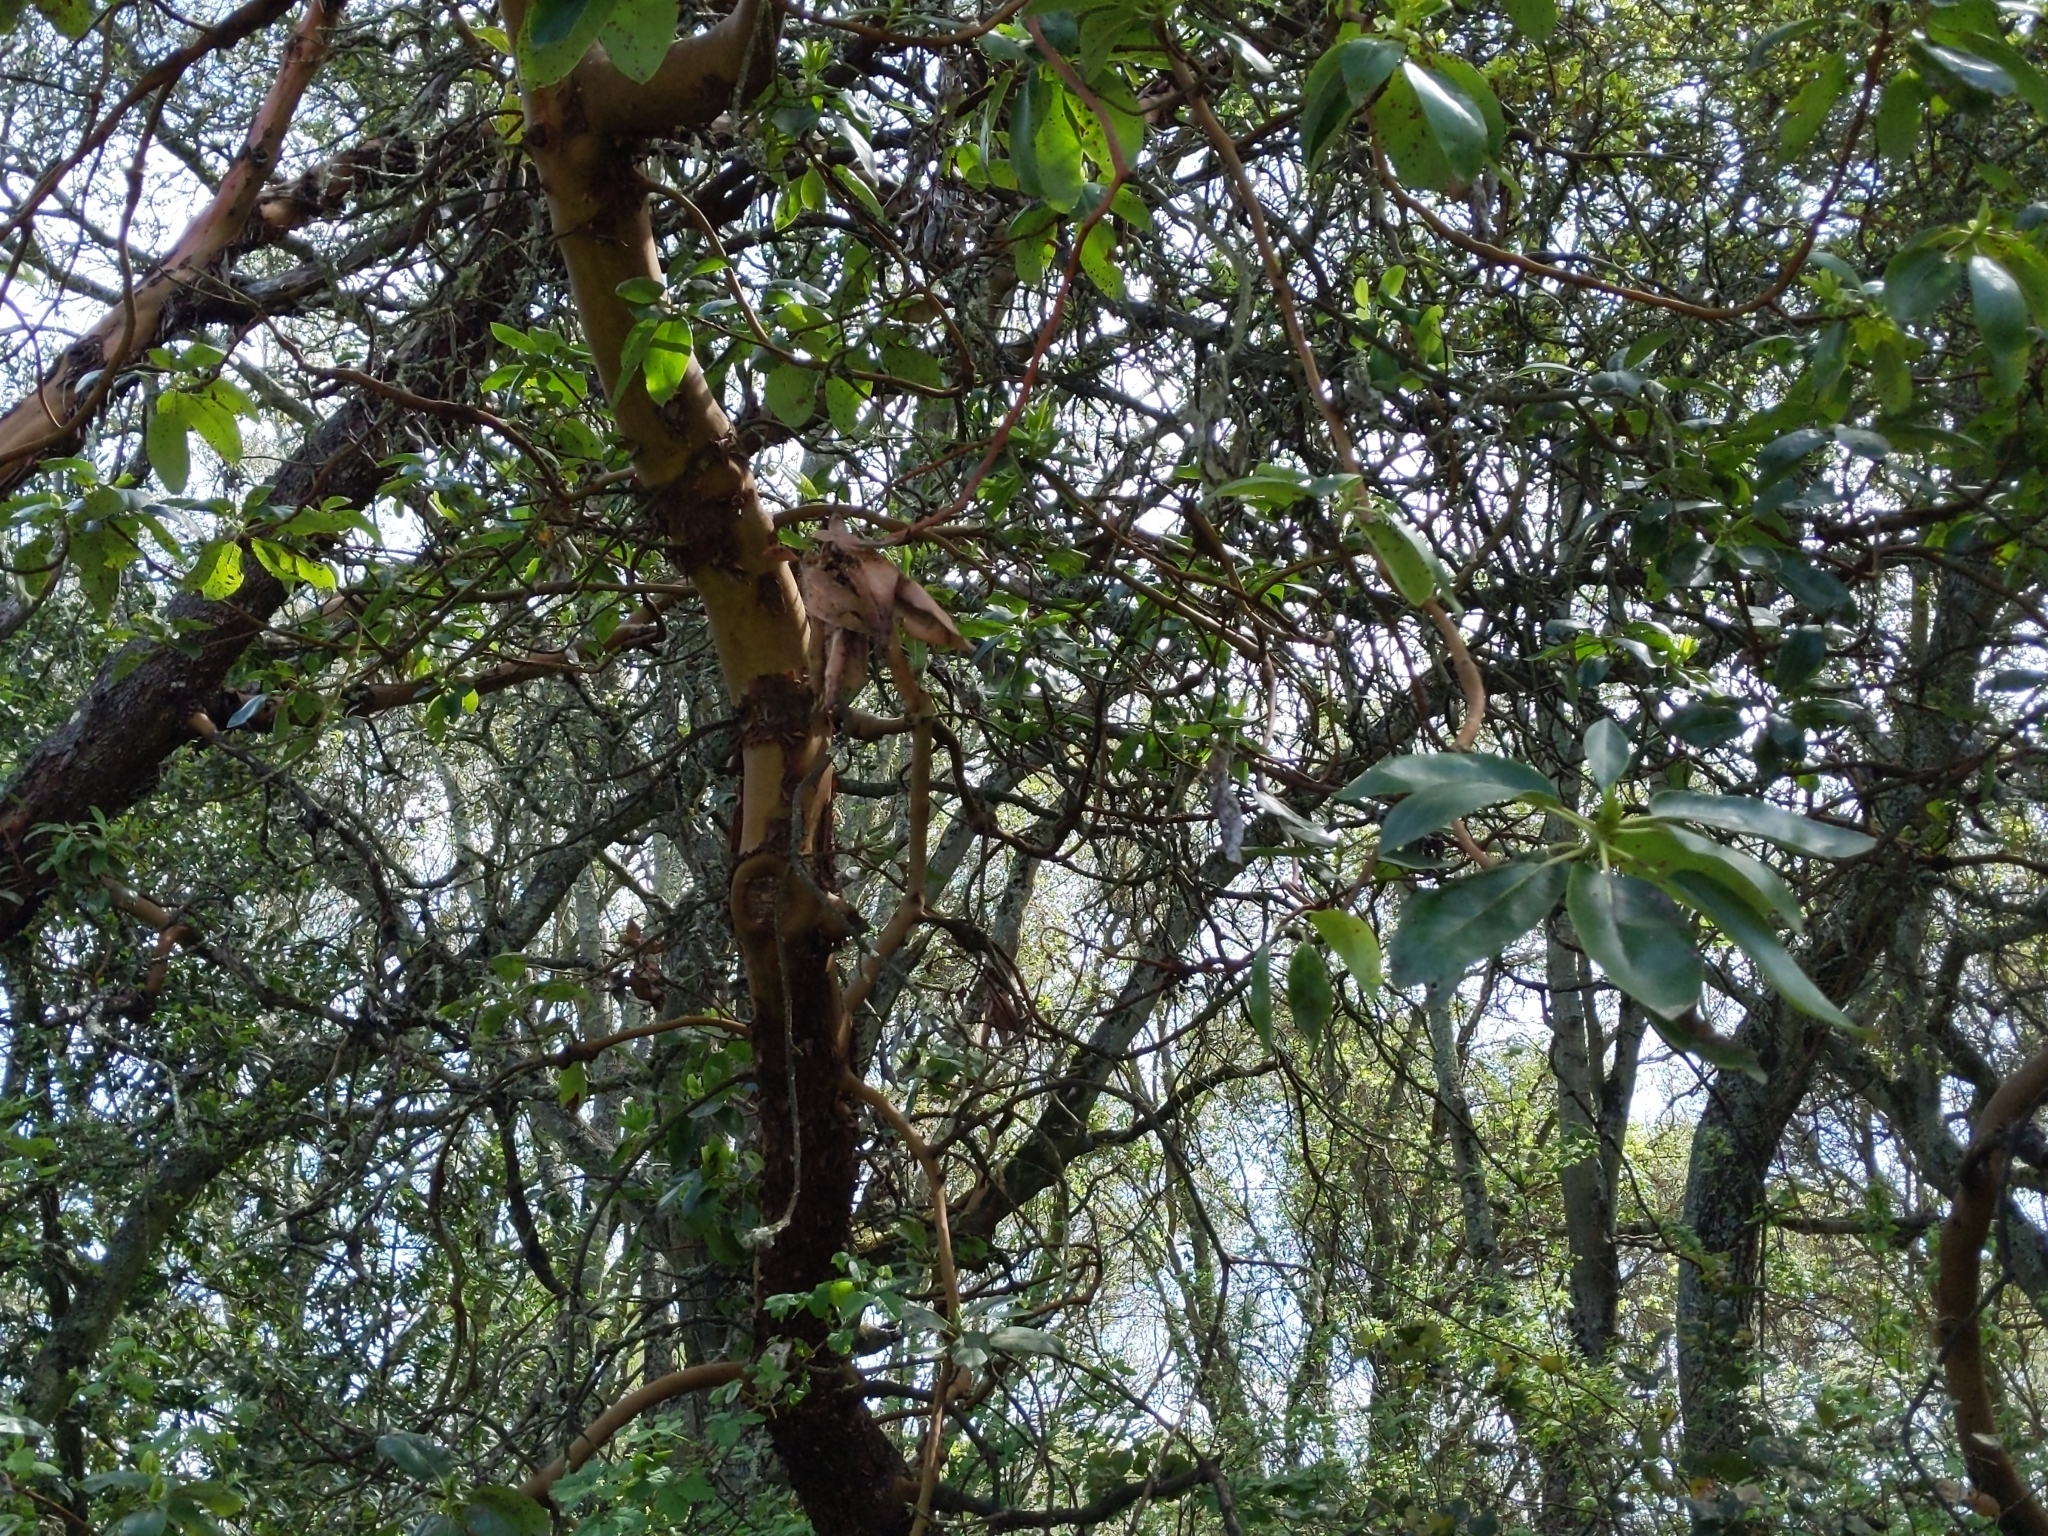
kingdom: Plantae
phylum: Tracheophyta
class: Magnoliopsida
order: Ericales
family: Ericaceae
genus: Arbutus
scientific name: Arbutus menziesii
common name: Pacific madrone
